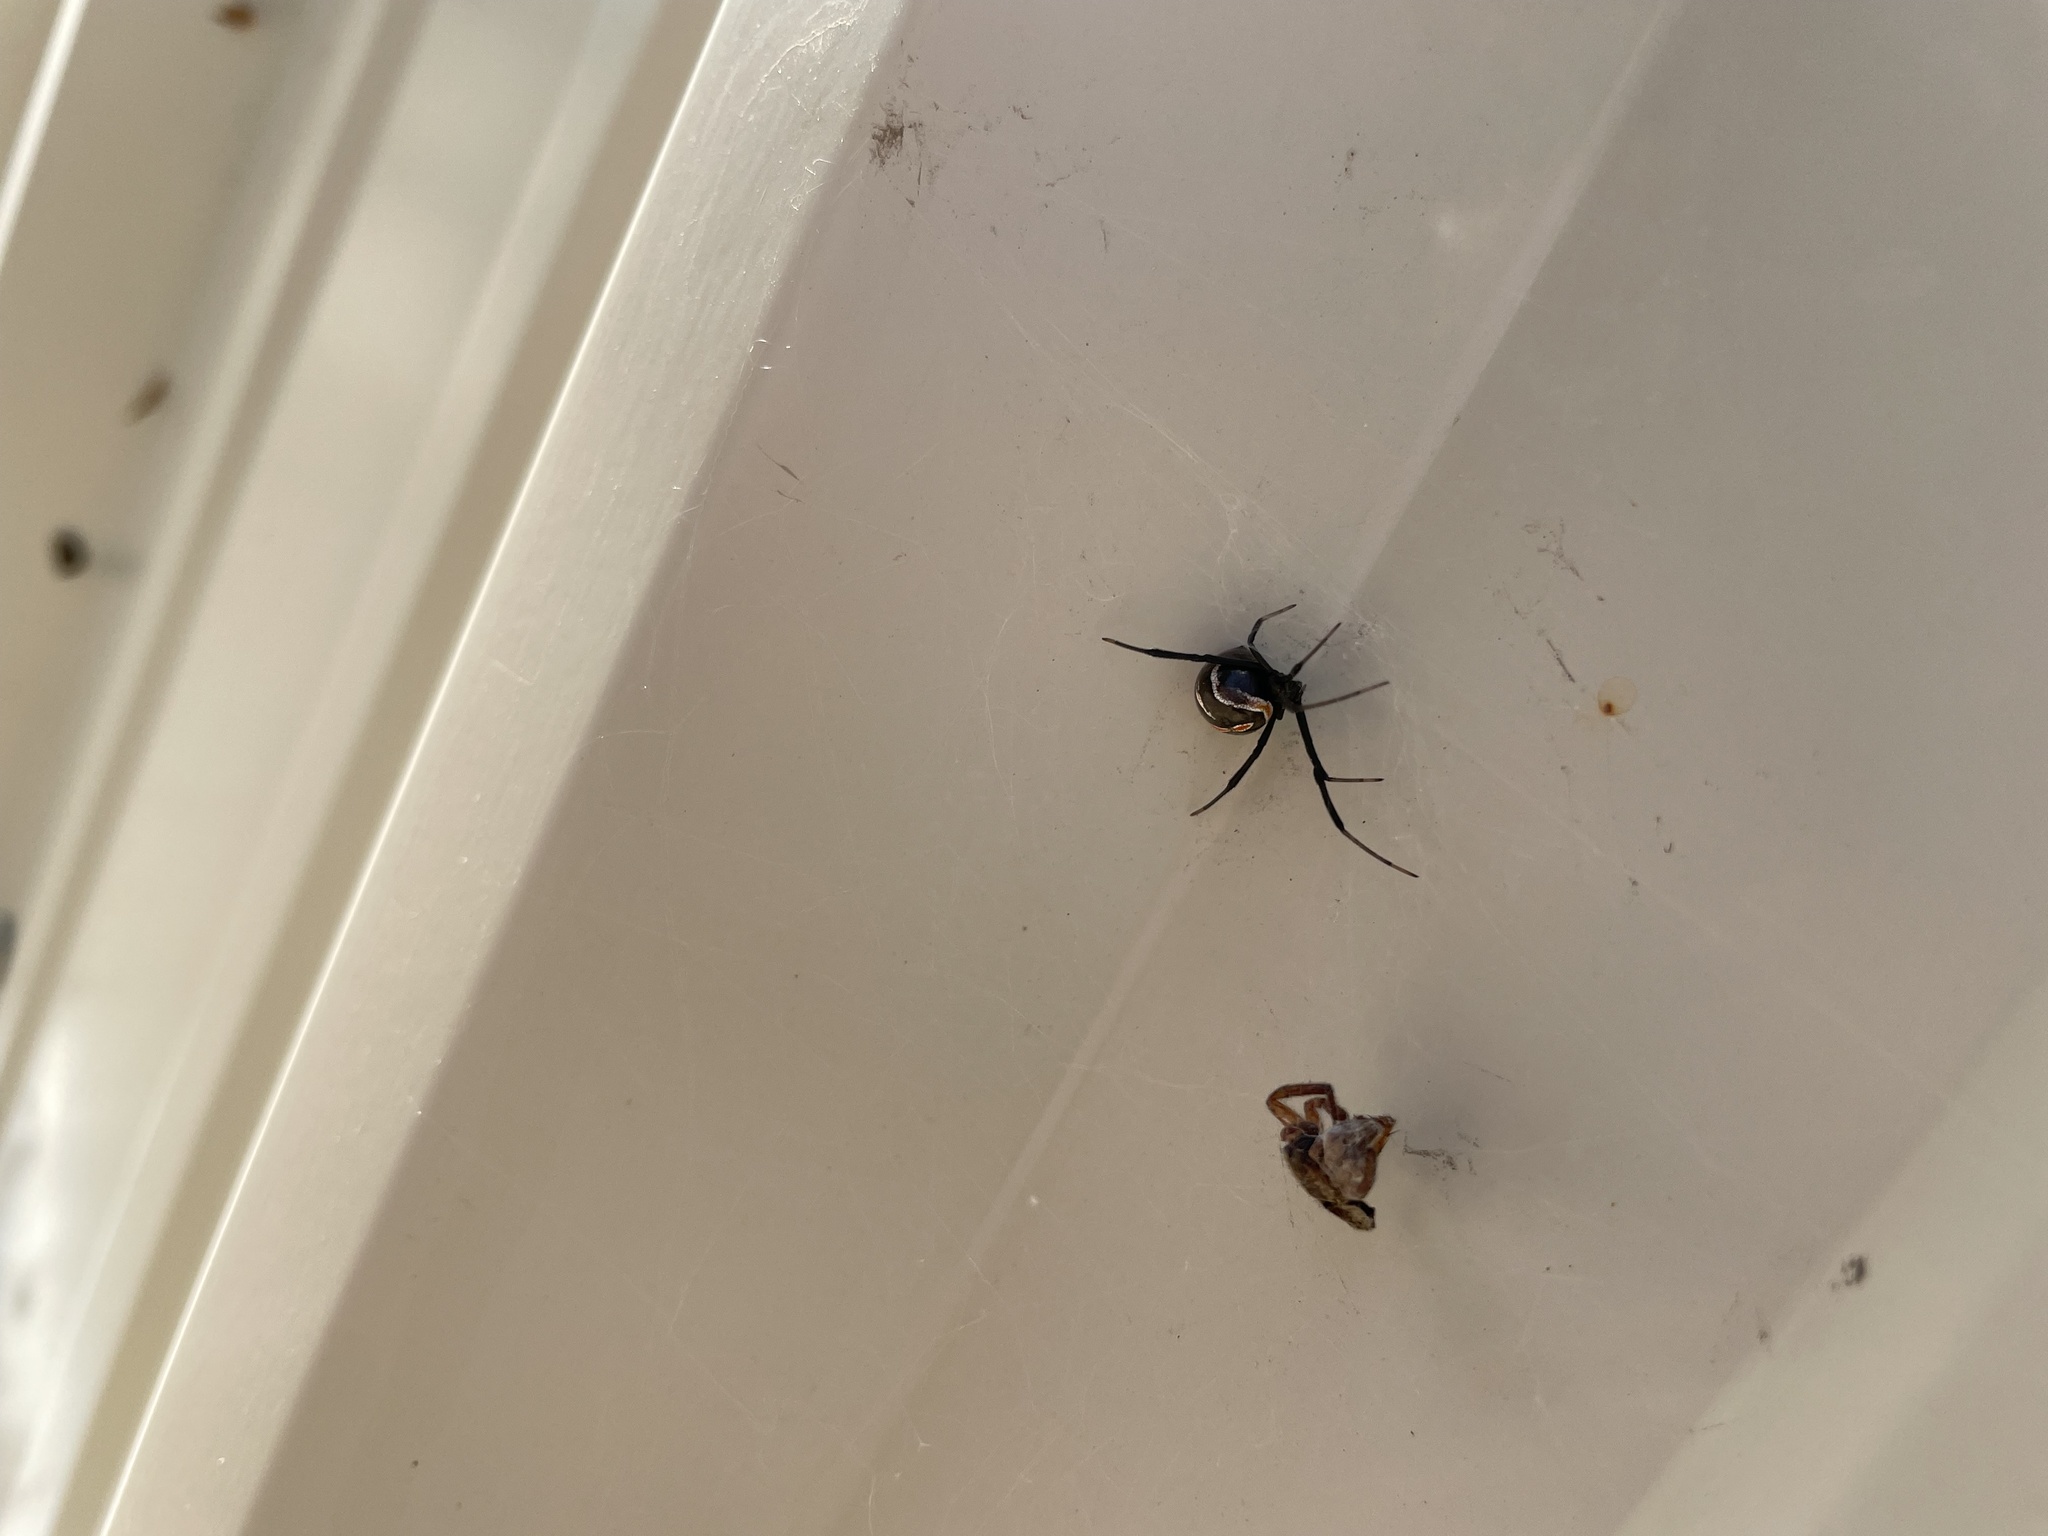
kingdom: Animalia
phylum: Arthropoda
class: Arachnida
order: Araneae
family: Theridiidae
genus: Latrodectus
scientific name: Latrodectus hesperus
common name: Western black widow
